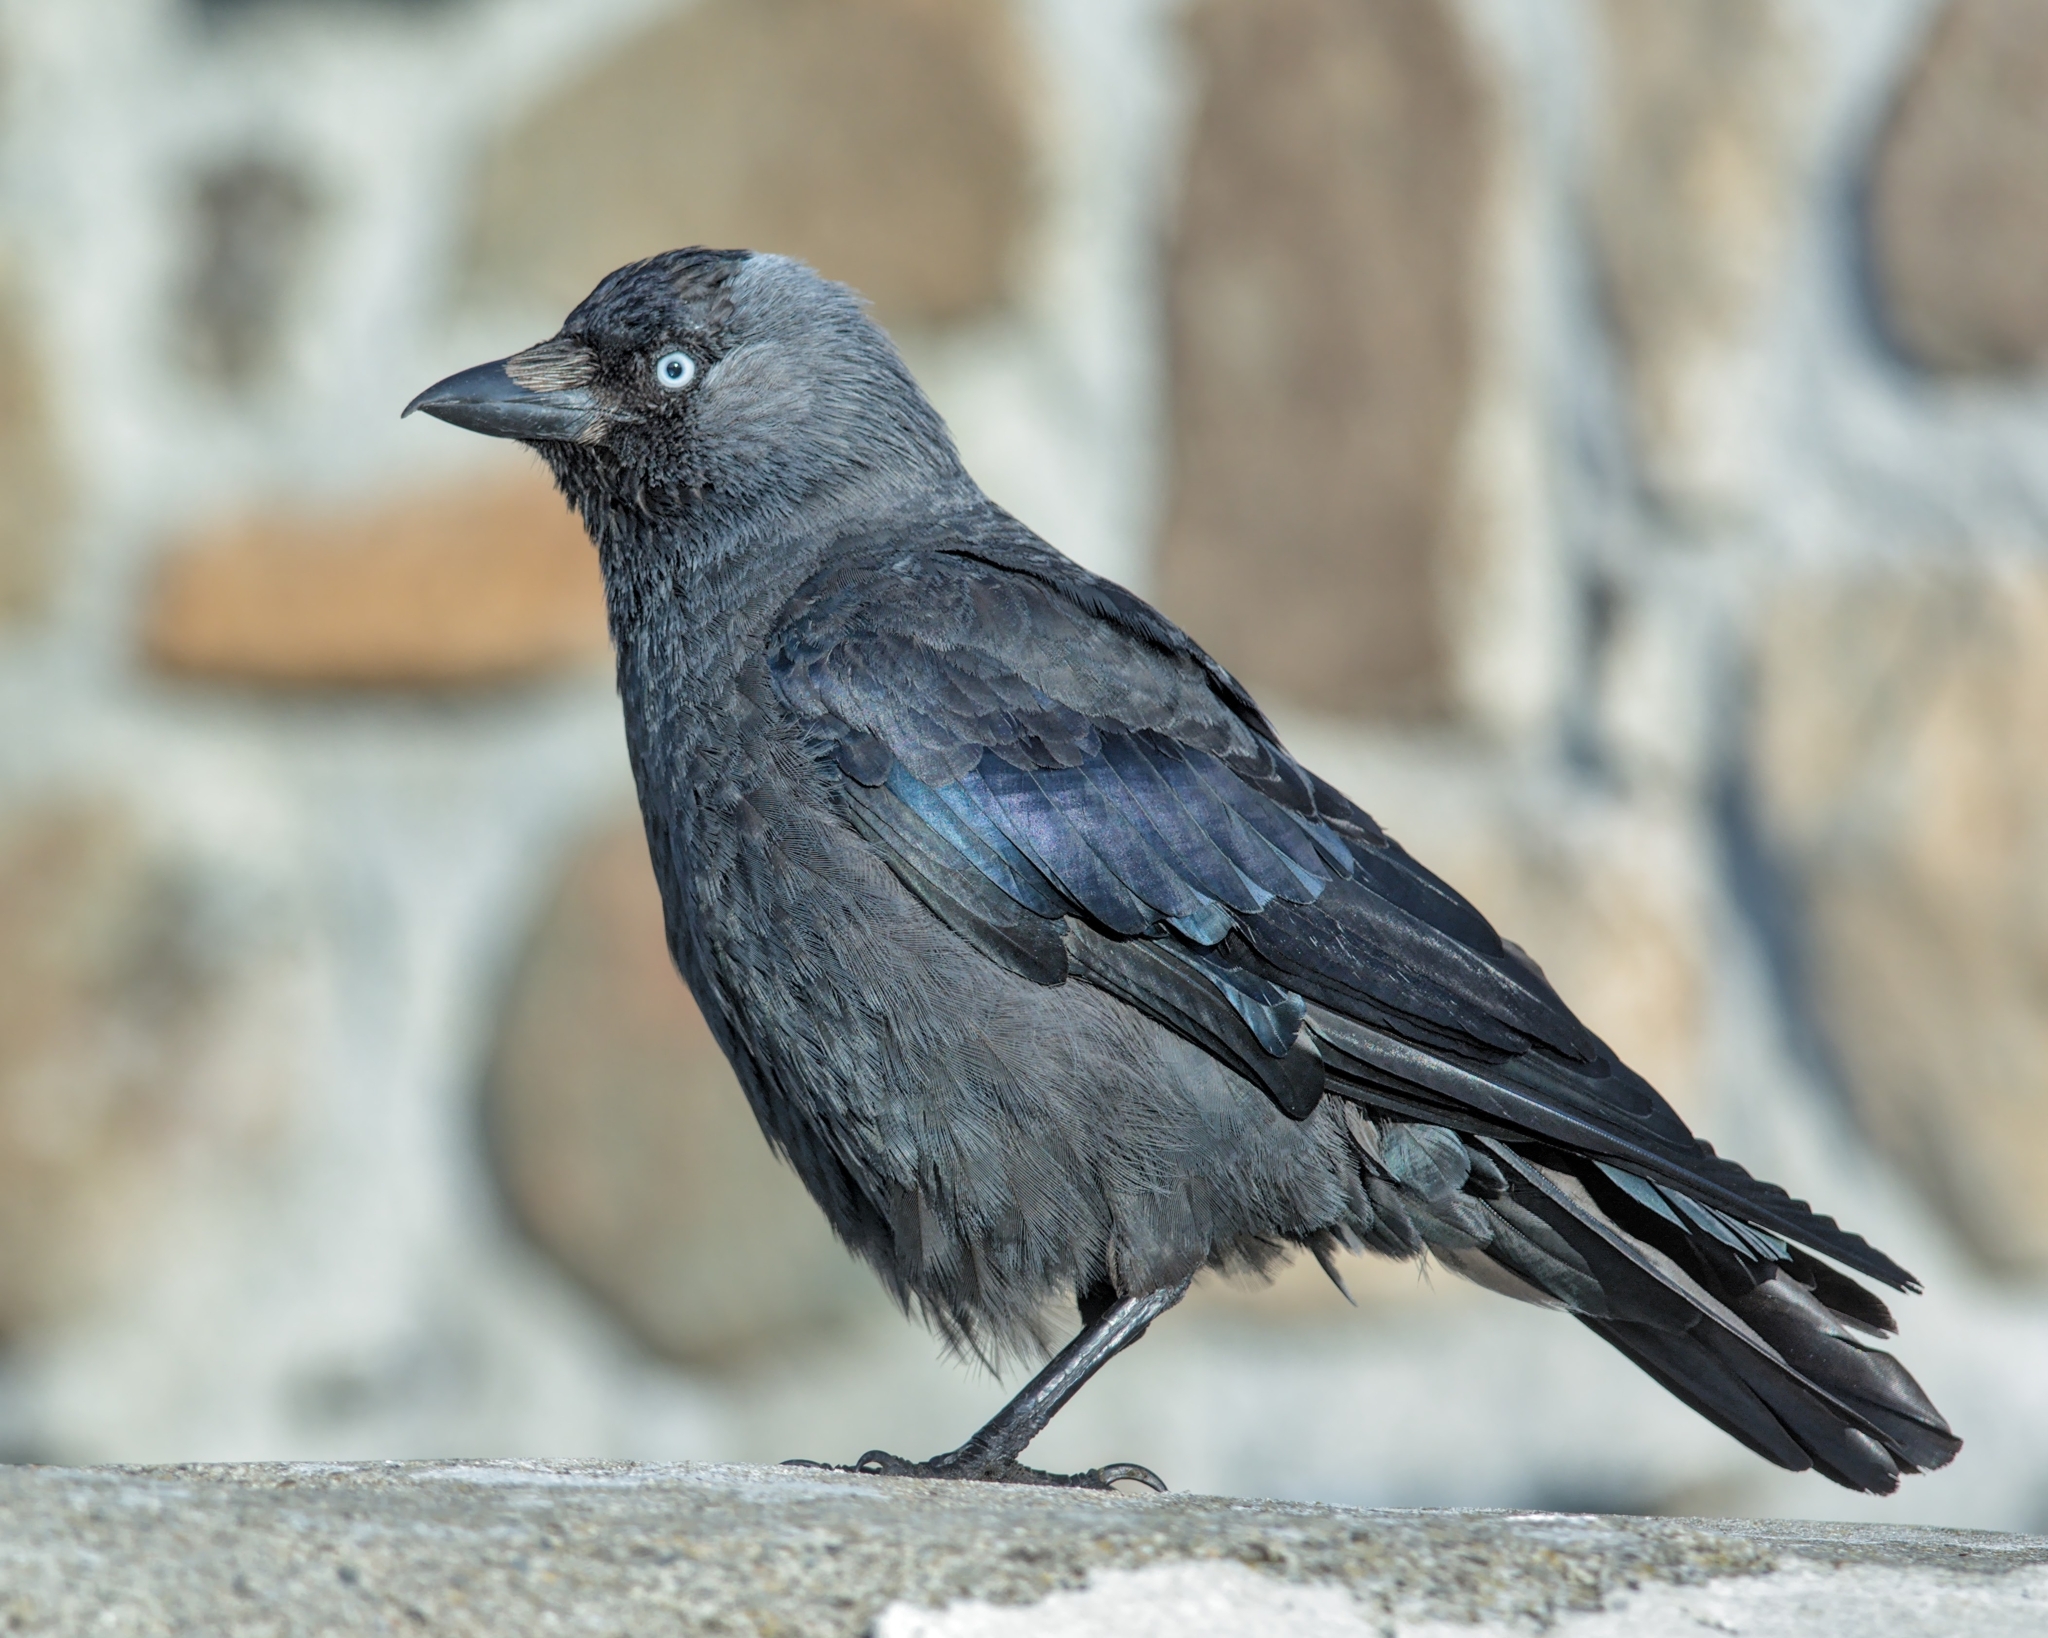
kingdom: Animalia
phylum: Chordata
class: Aves
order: Passeriformes
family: Corvidae
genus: Coloeus
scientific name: Coloeus monedula
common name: Western jackdaw
